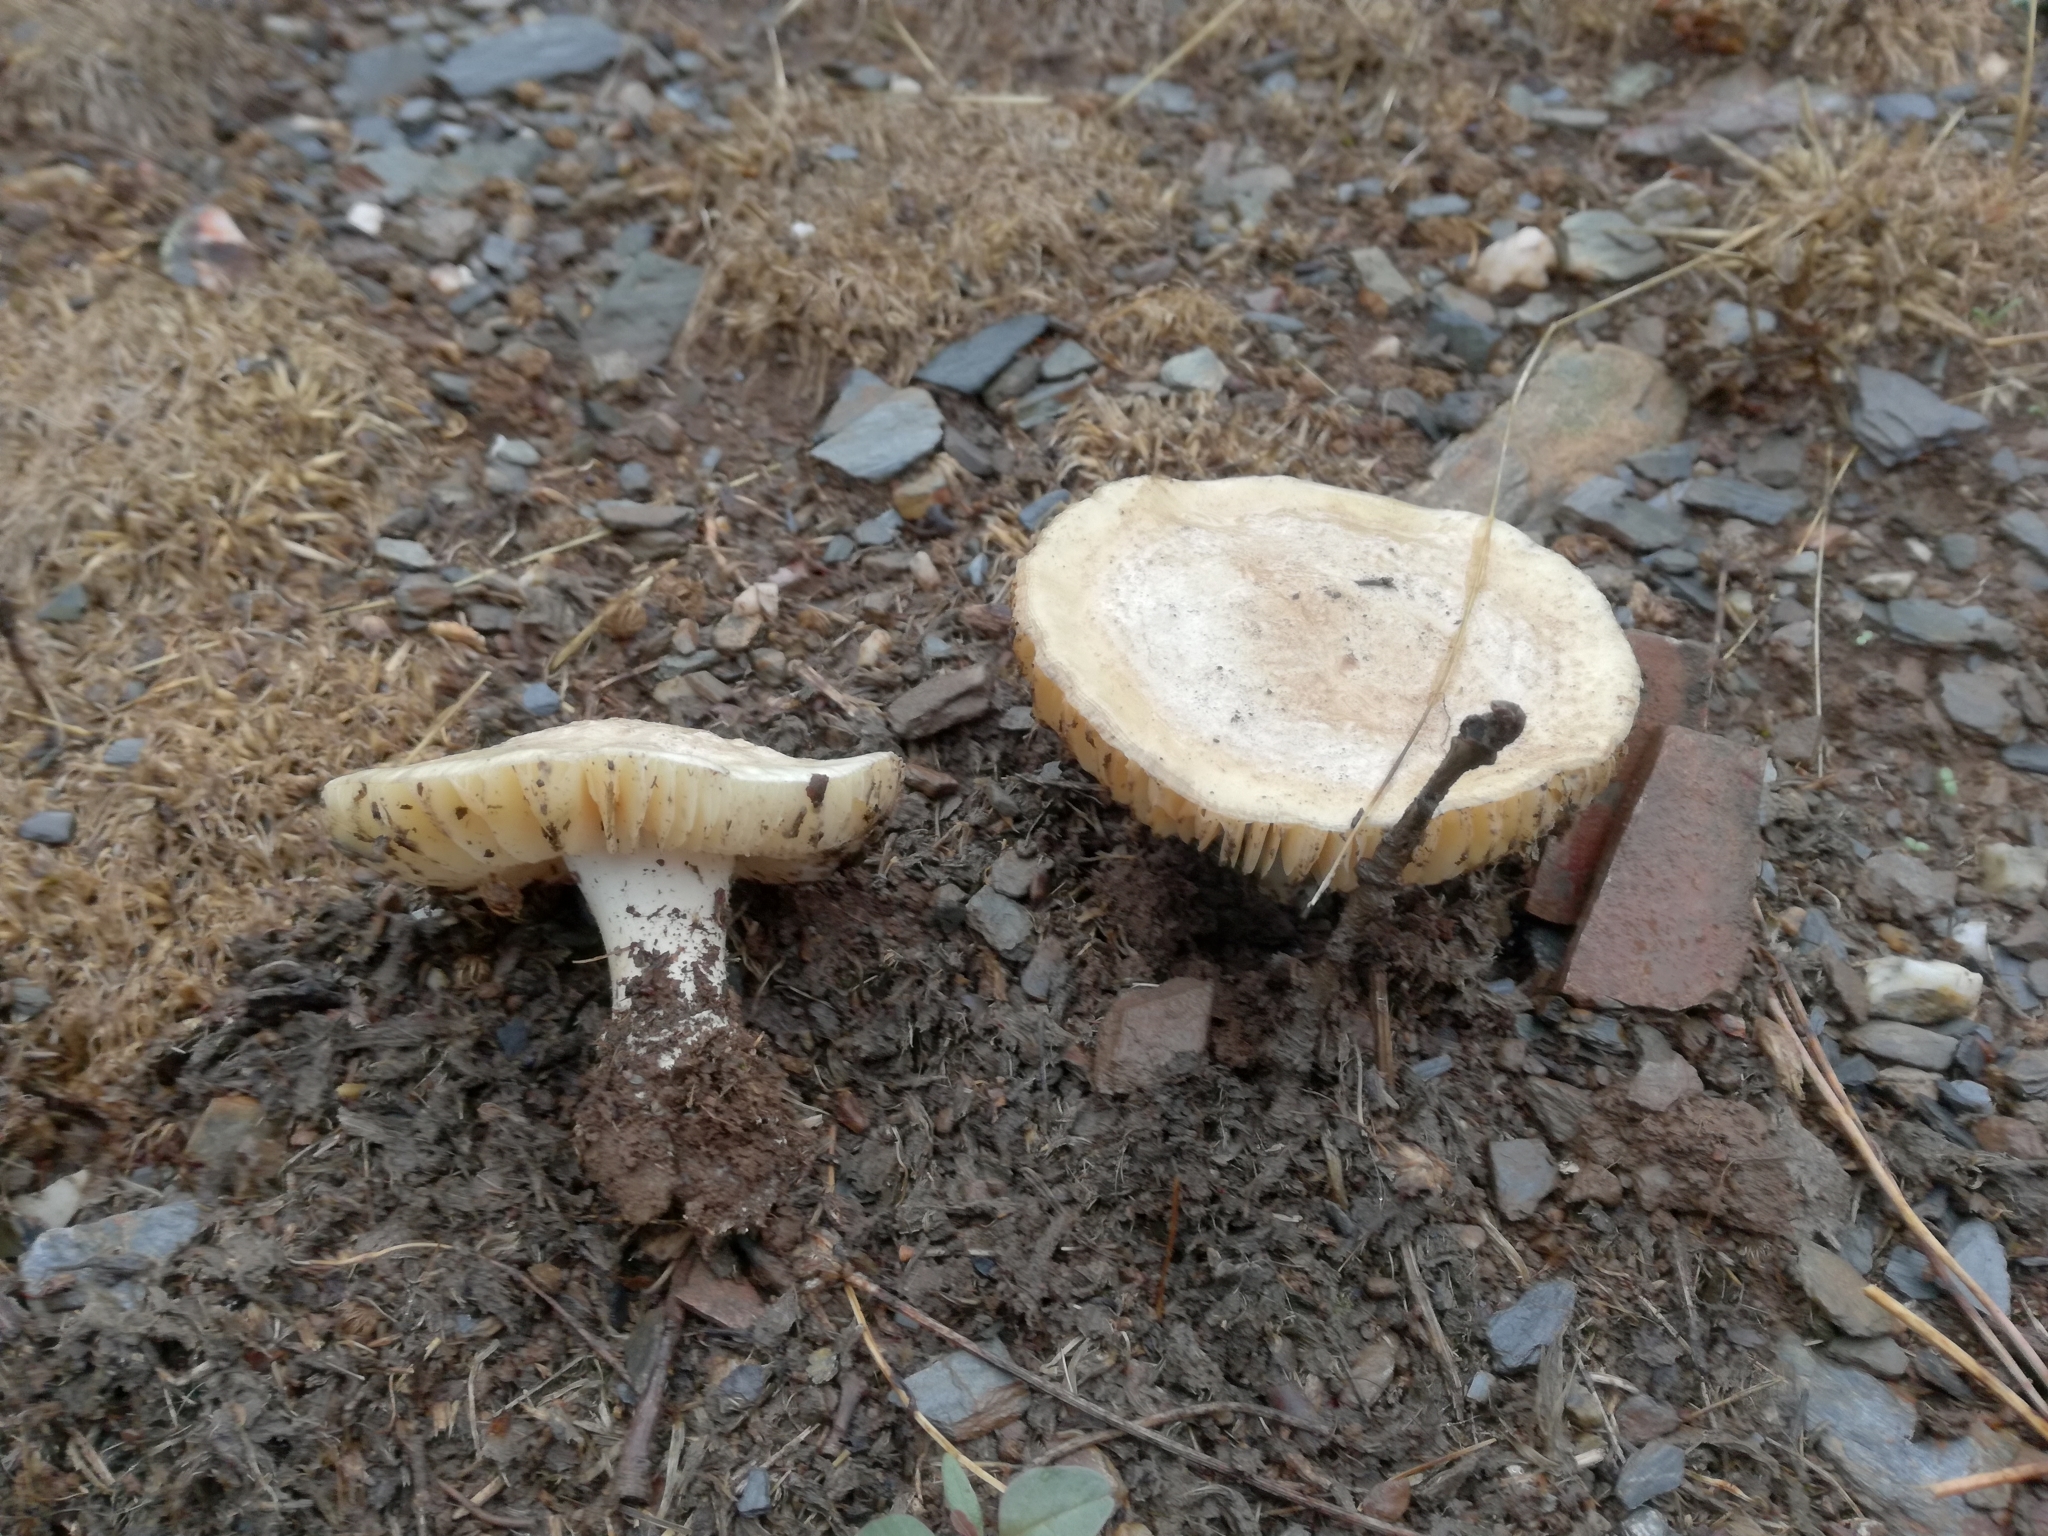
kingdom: Fungi
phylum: Basidiomycota
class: Agaricomycetes
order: Agaricales
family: Amanitaceae
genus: Amanita
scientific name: Amanita singeri
